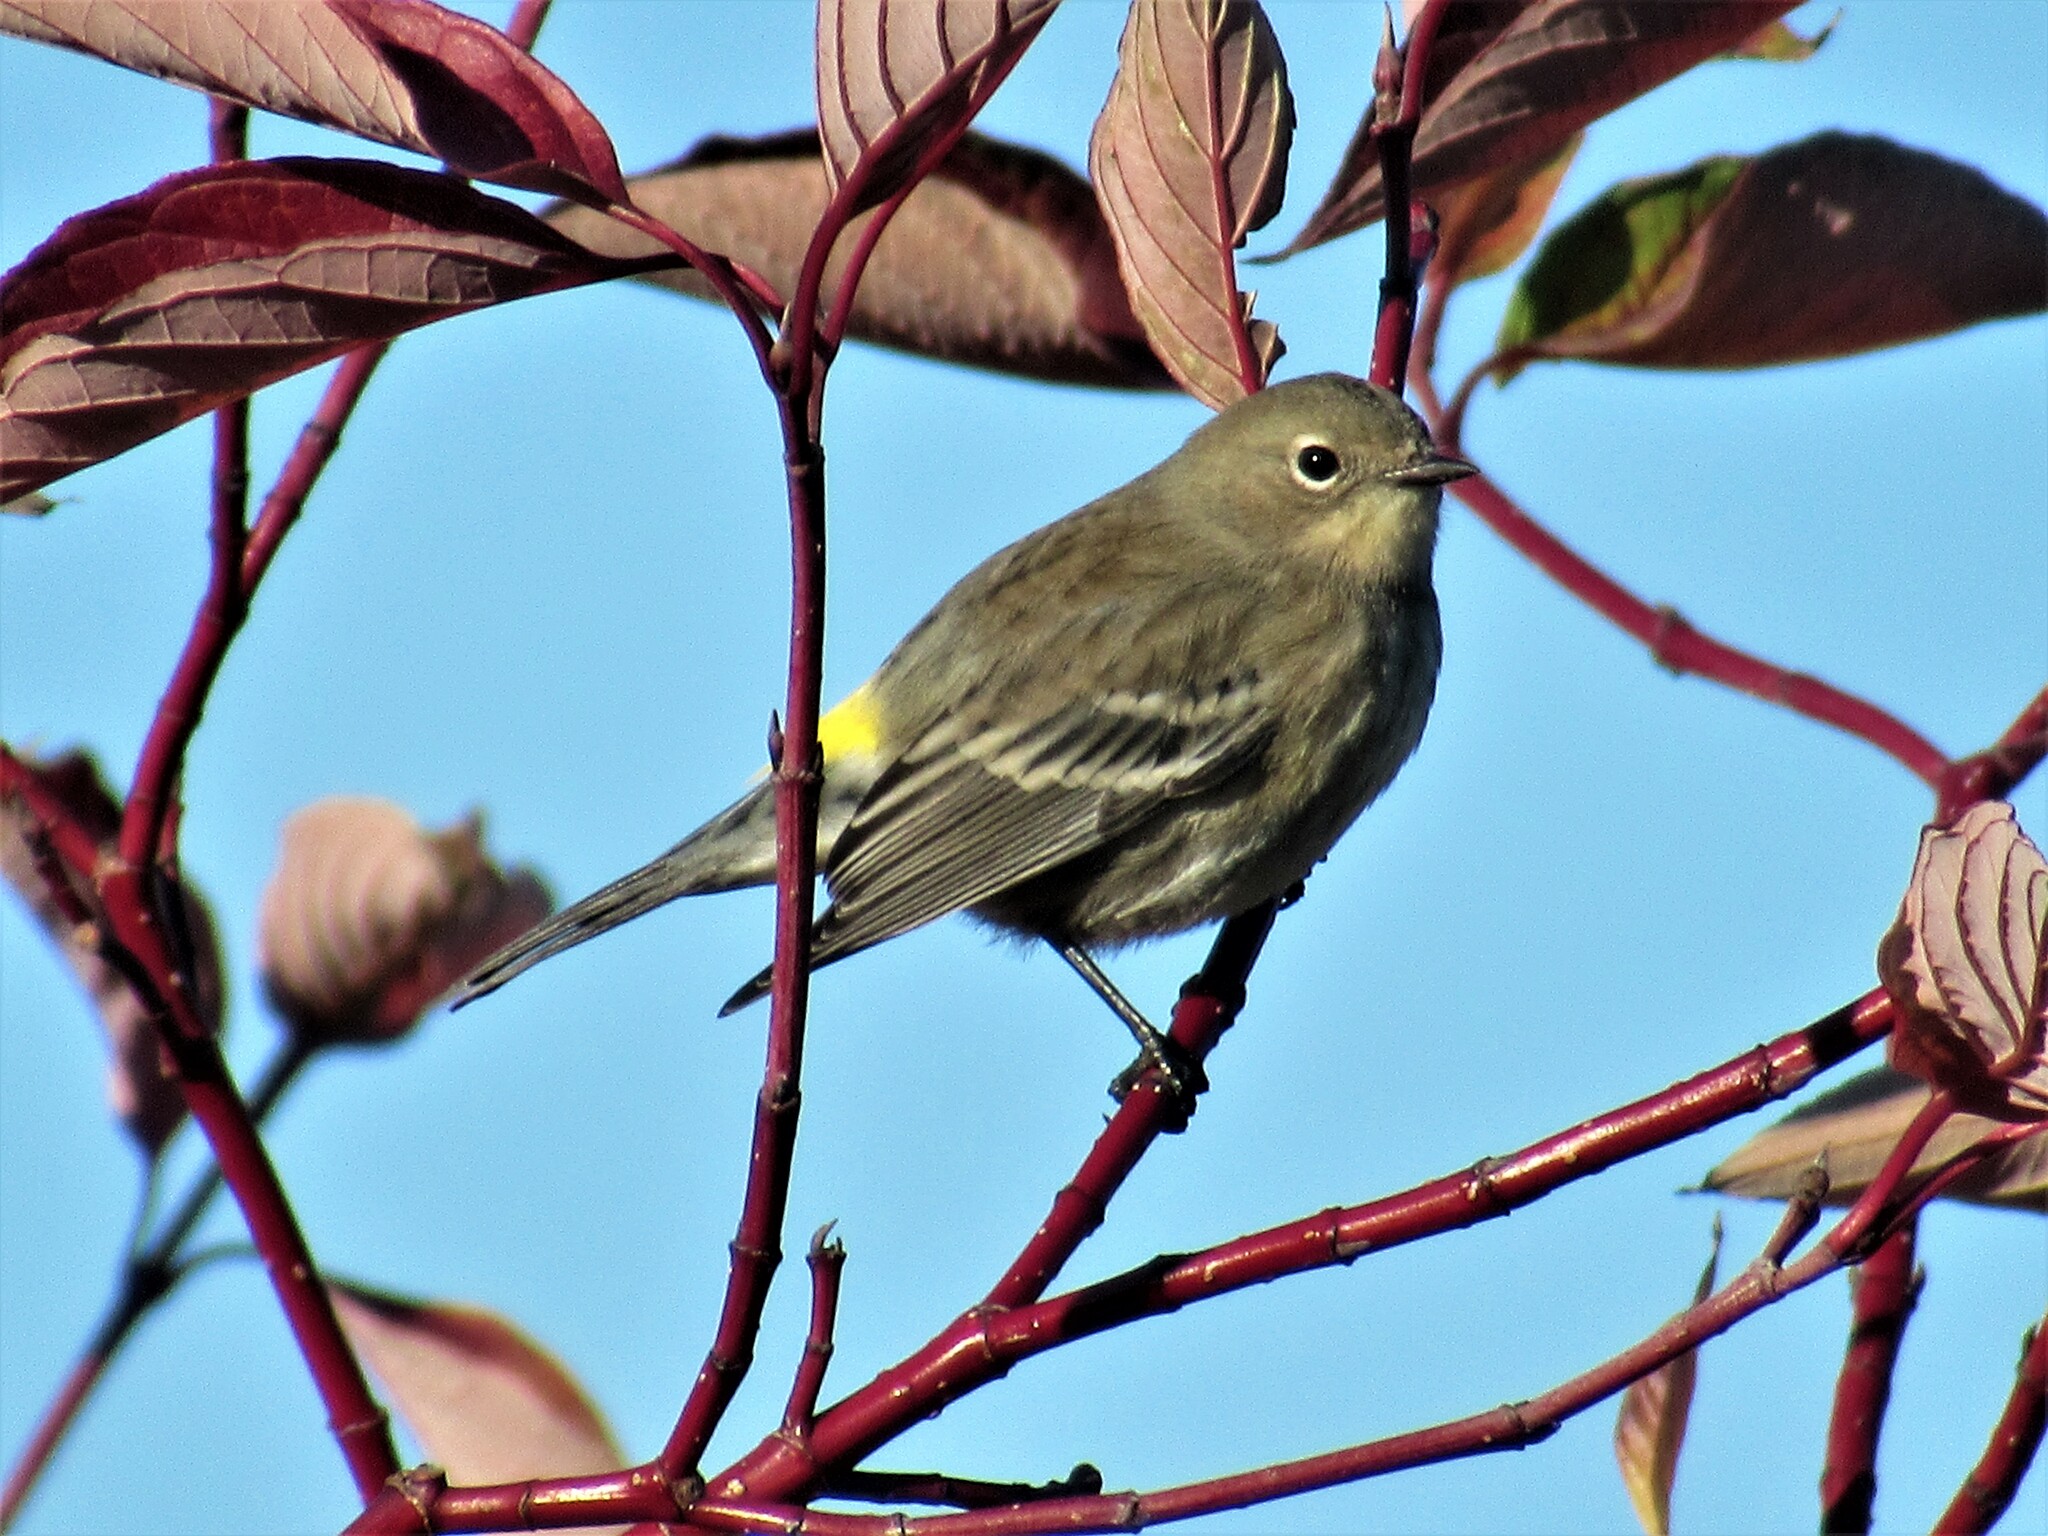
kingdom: Animalia
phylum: Chordata
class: Aves
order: Passeriformes
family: Parulidae
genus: Setophaga
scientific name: Setophaga coronata
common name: Myrtle warbler
